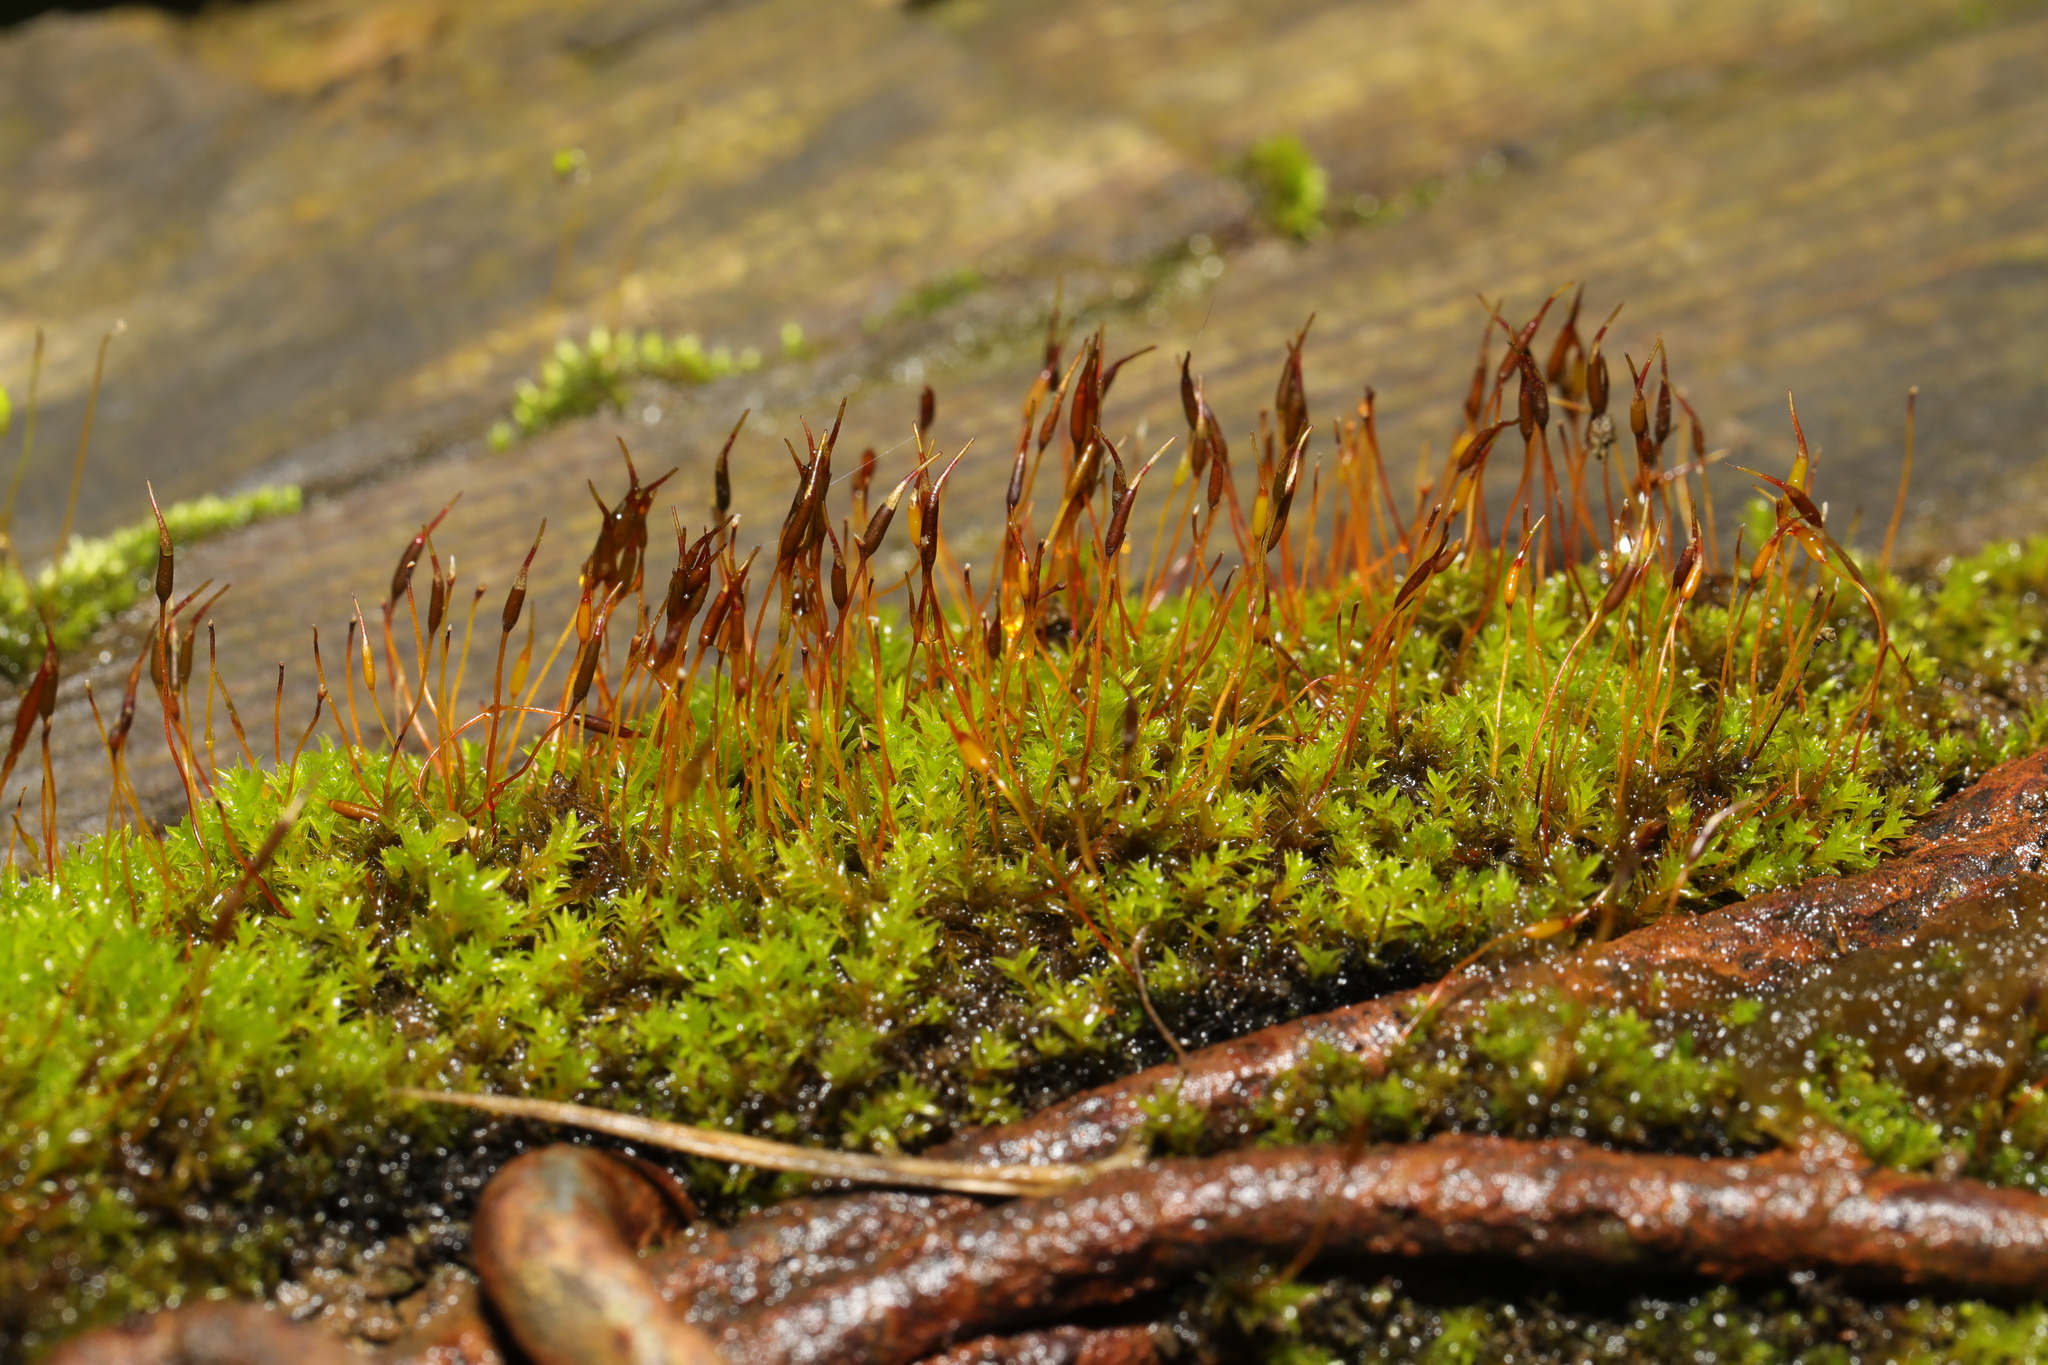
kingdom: Plantae
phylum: Bryophyta
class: Bryopsida
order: Pottiales
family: Pottiaceae
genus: Barbula
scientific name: Barbula unguiculata
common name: Prickly beard moss
